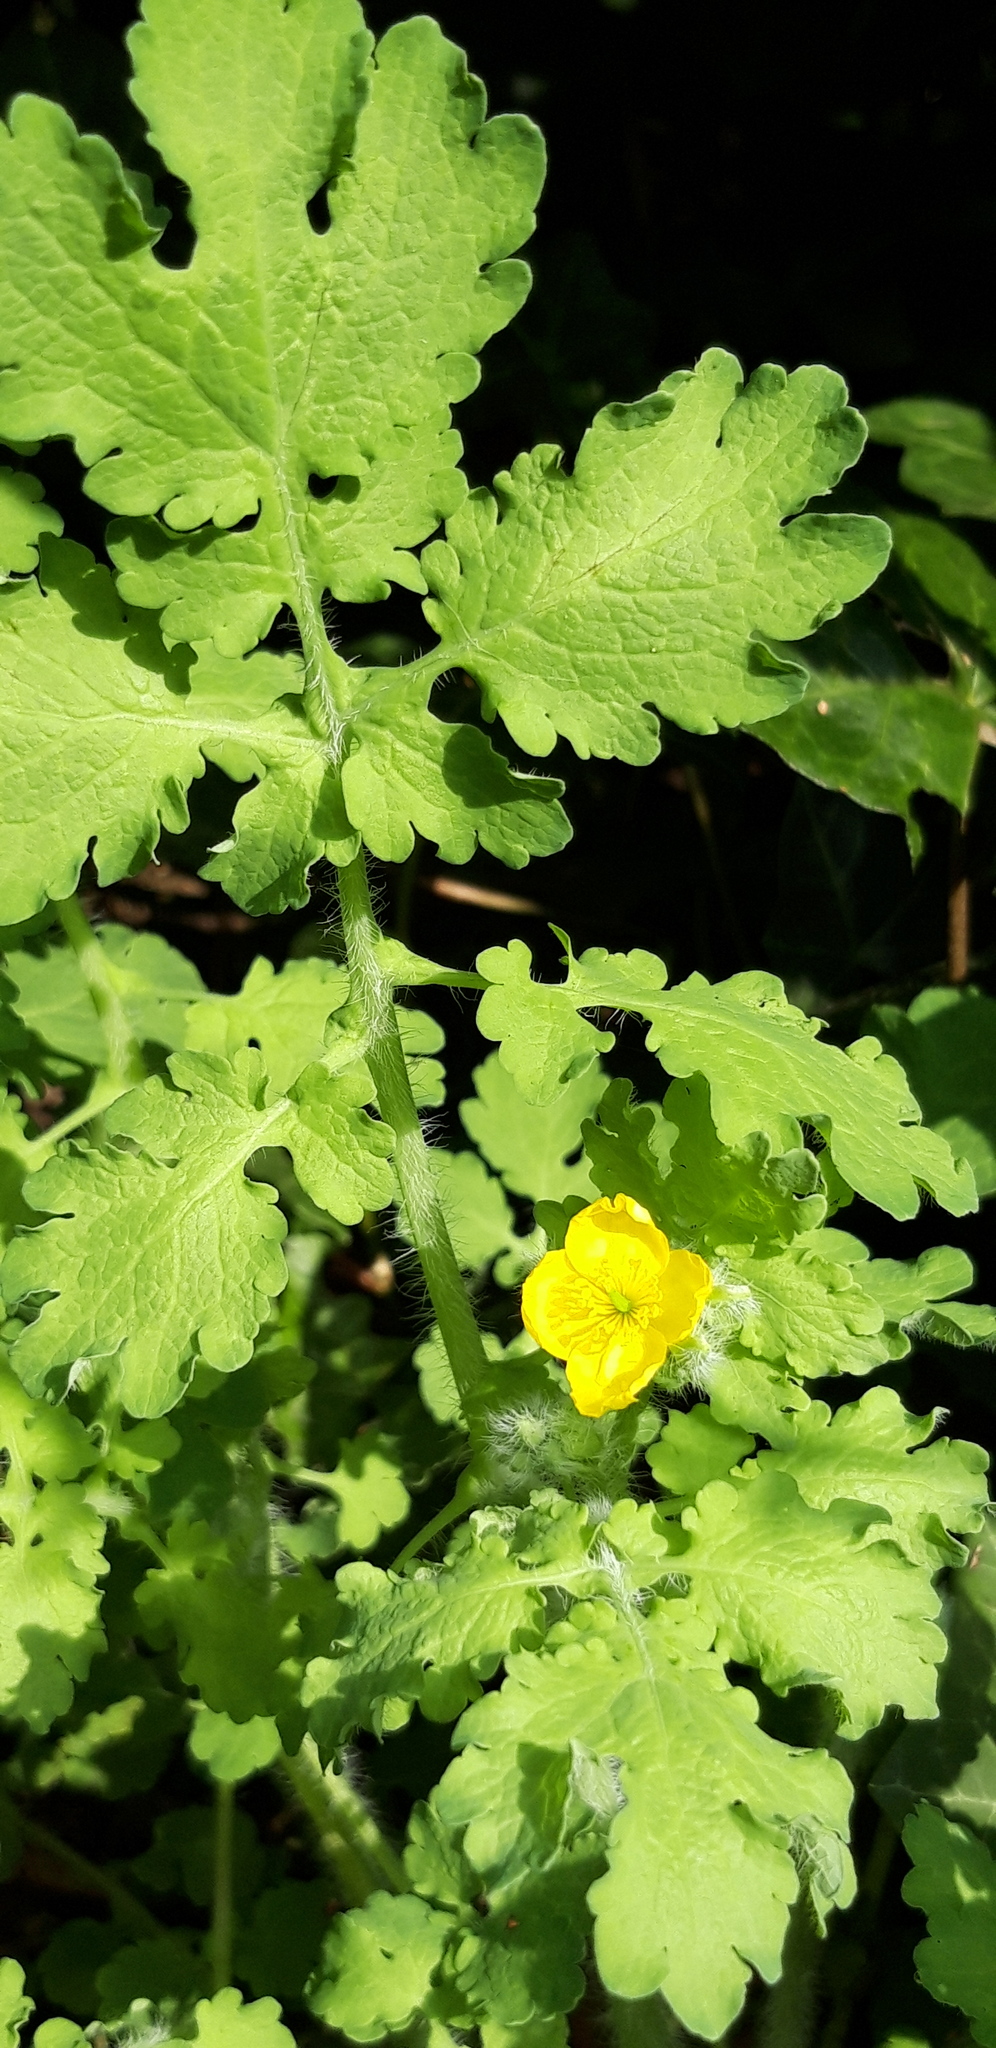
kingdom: Plantae
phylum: Tracheophyta
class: Magnoliopsida
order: Ranunculales
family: Papaveraceae
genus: Chelidonium
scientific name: Chelidonium majus
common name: Greater celandine
